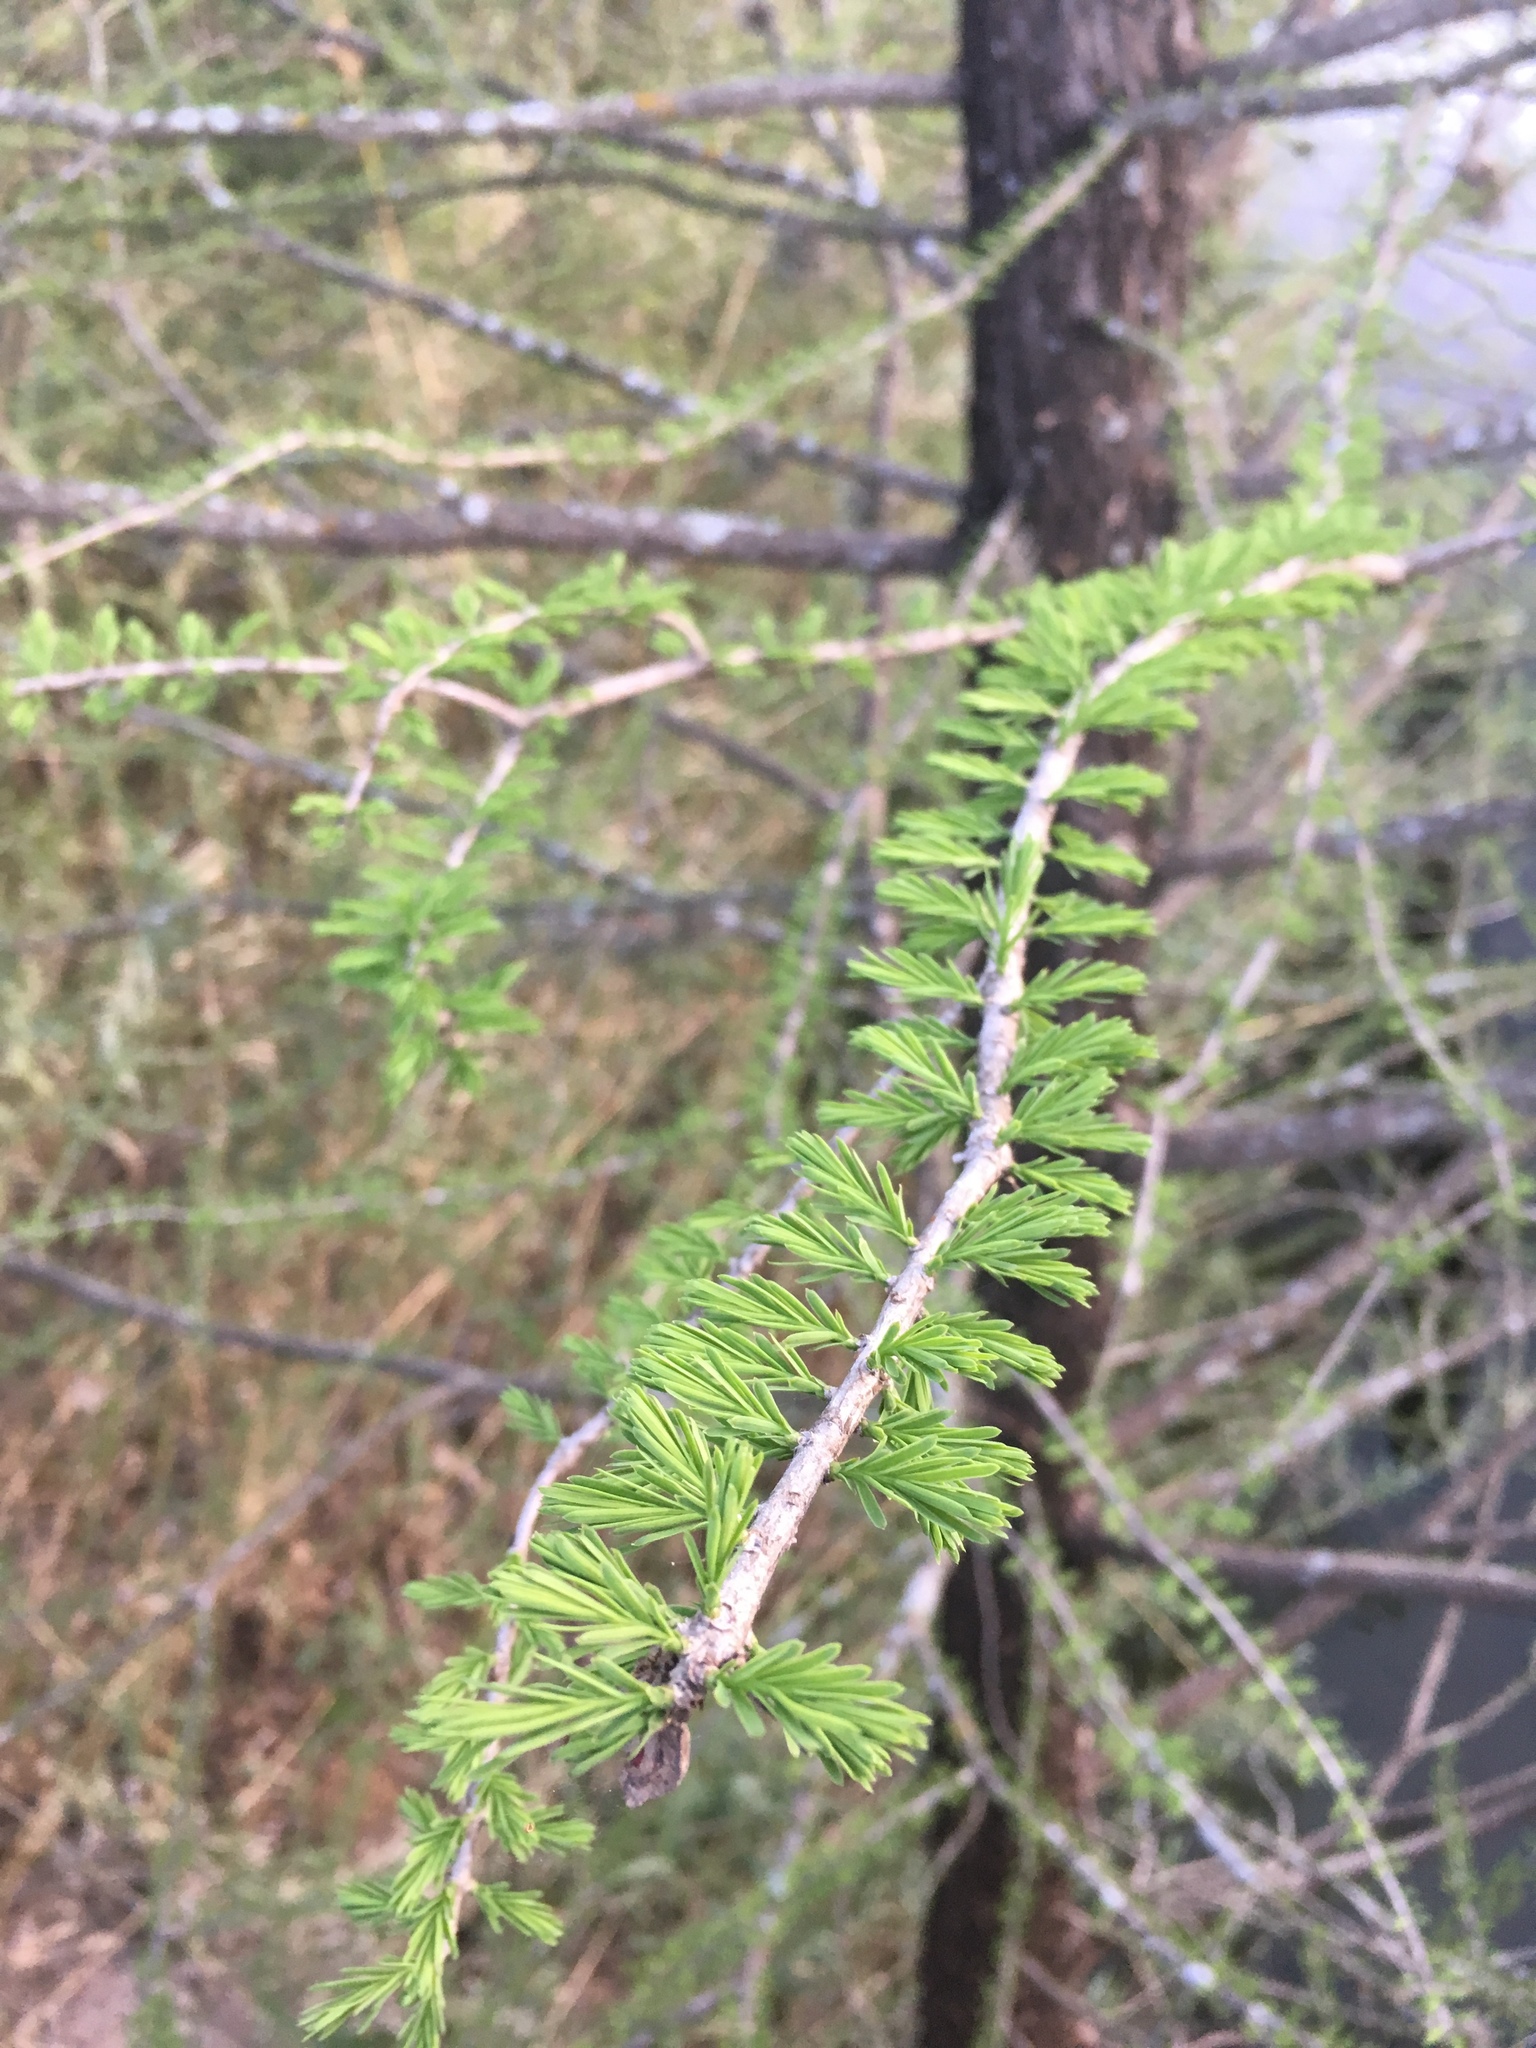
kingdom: Plantae
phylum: Tracheophyta
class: Pinopsida
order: Pinales
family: Cupressaceae
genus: Taxodium
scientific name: Taxodium distichum
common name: Bald cypress
